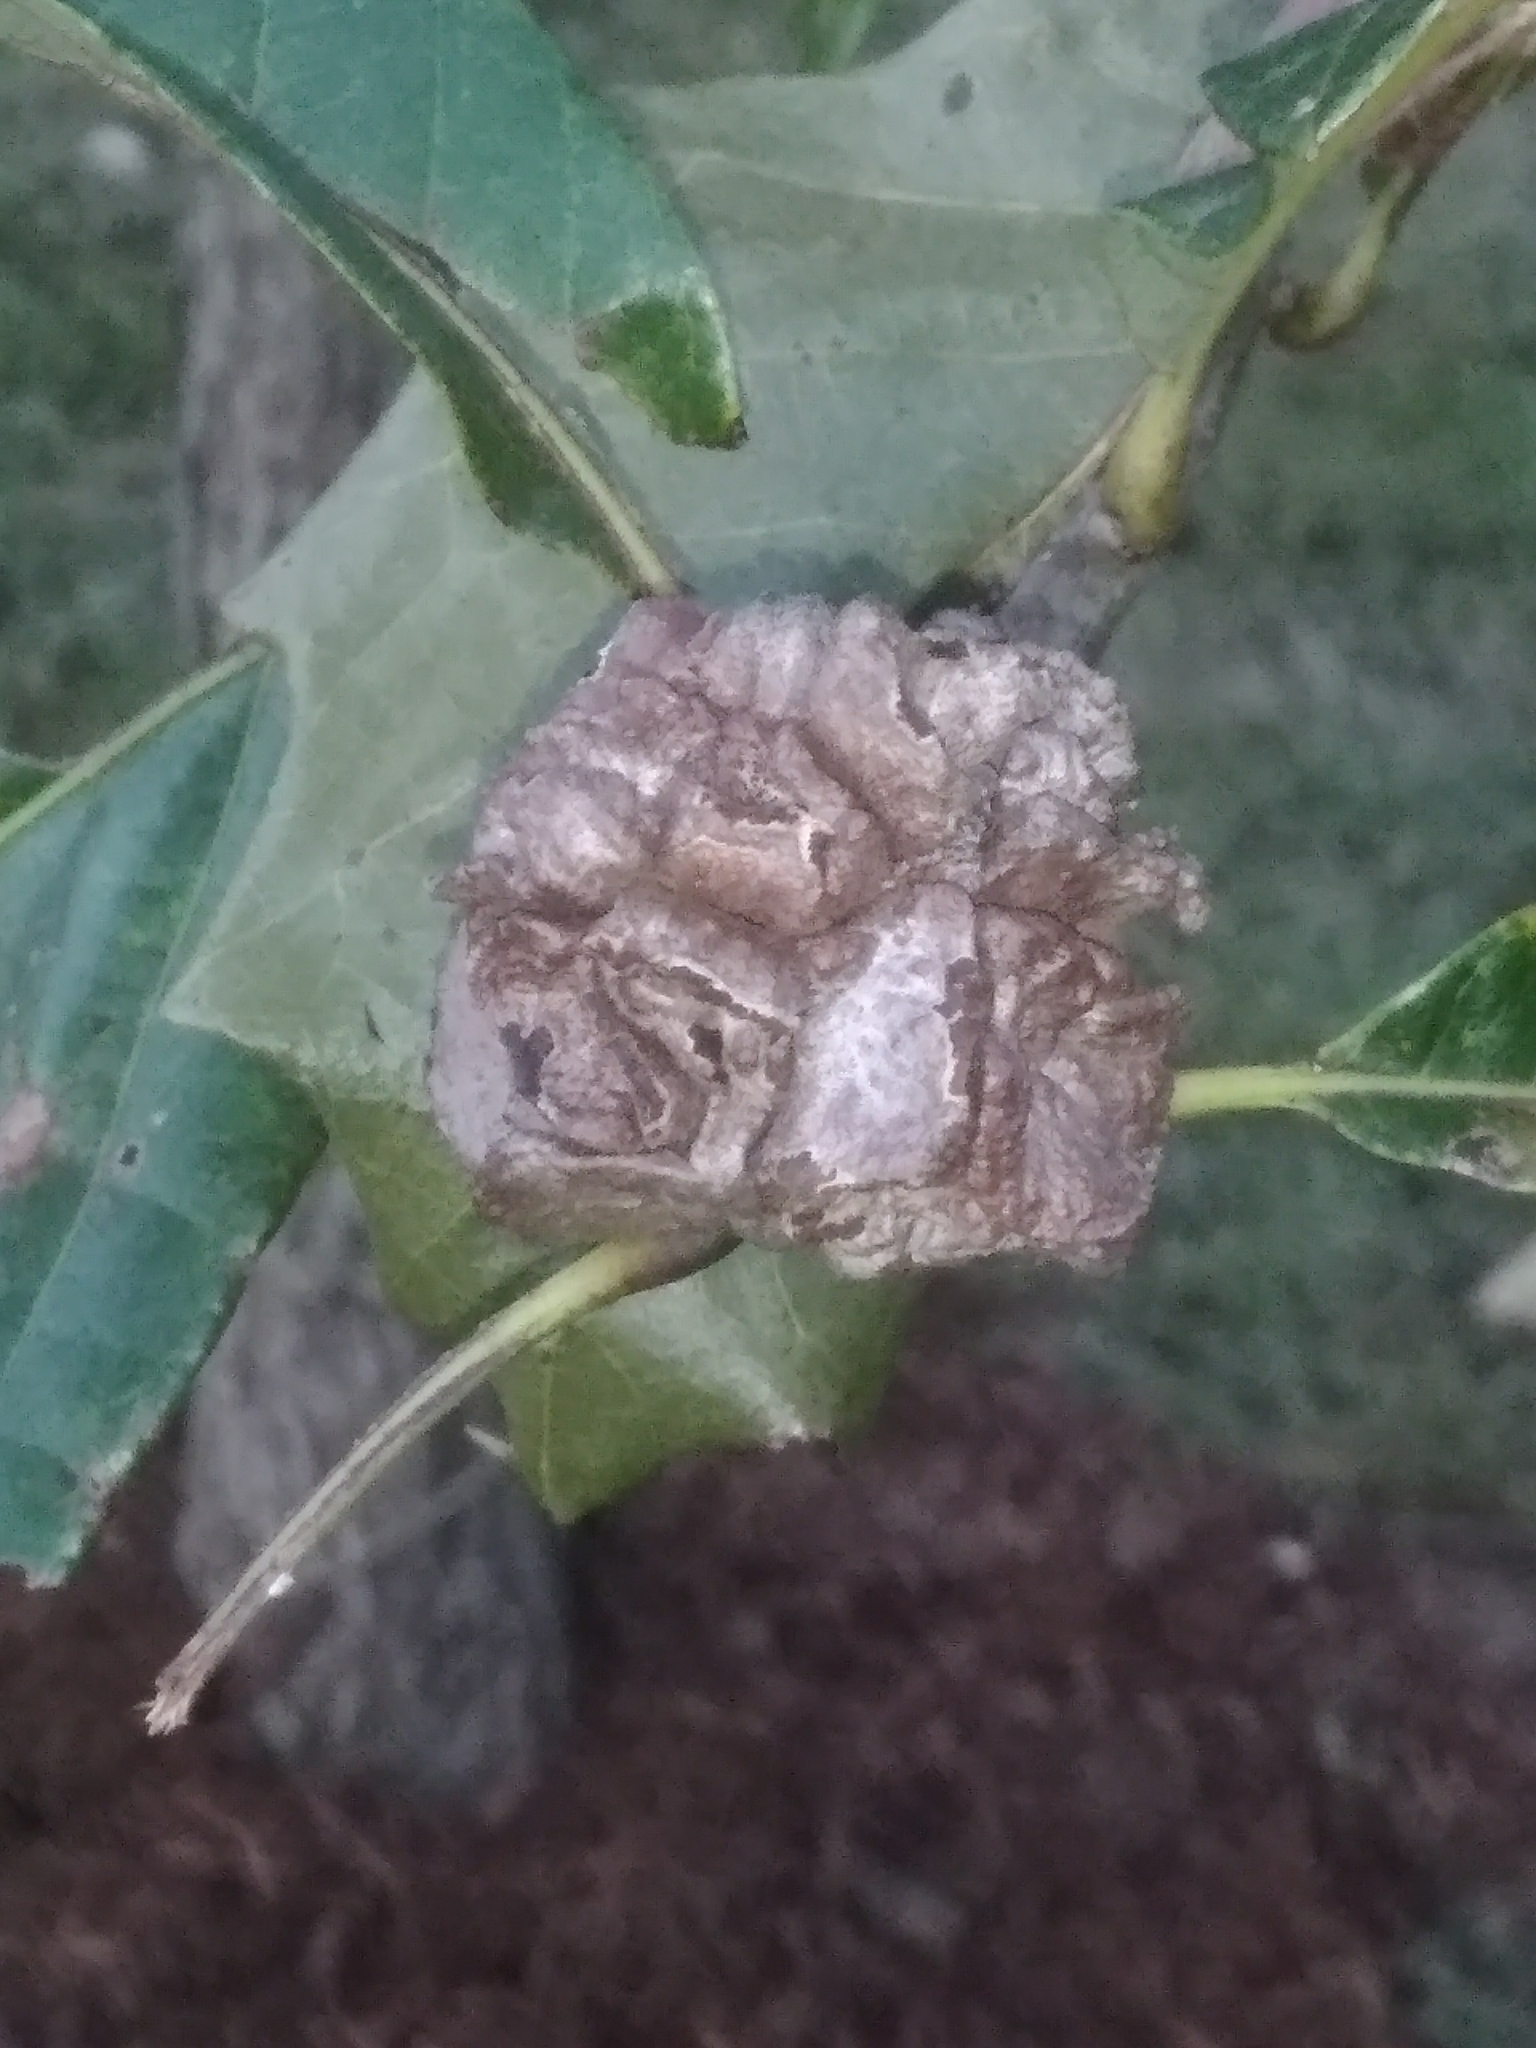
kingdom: Animalia
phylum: Arthropoda
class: Insecta
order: Hymenoptera
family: Cynipidae
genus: Andricus
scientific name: Andricus
